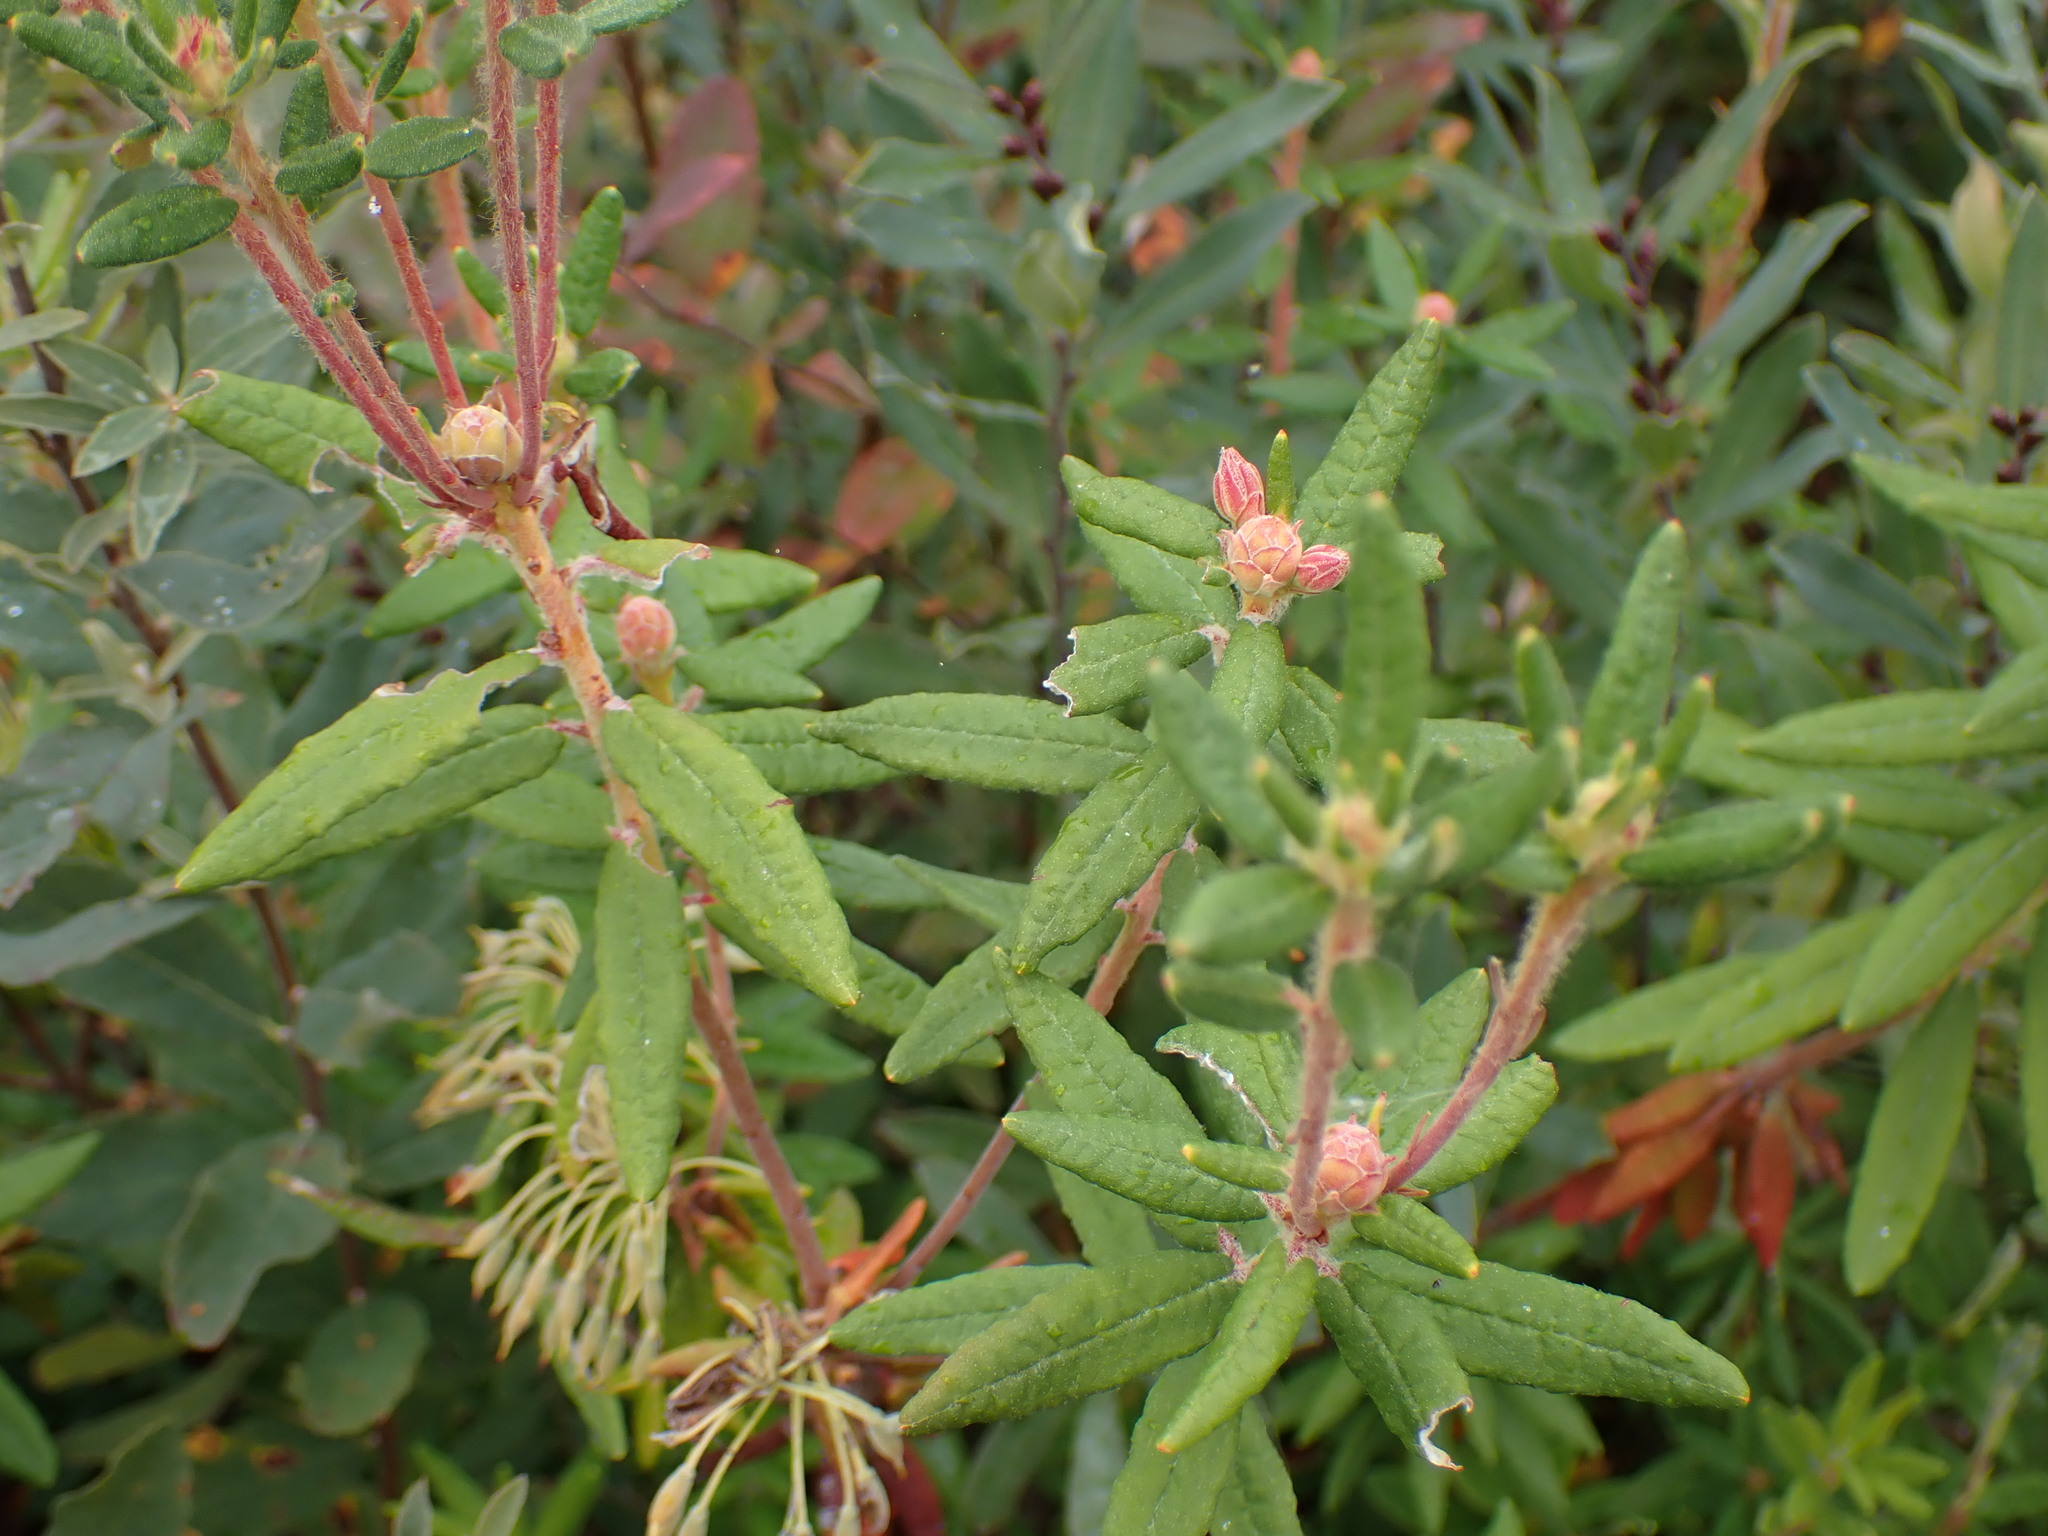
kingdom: Plantae
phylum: Tracheophyta
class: Magnoliopsida
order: Ericales
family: Ericaceae
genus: Rhododendron
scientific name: Rhododendron groenlandicum
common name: Bog labrador tea
